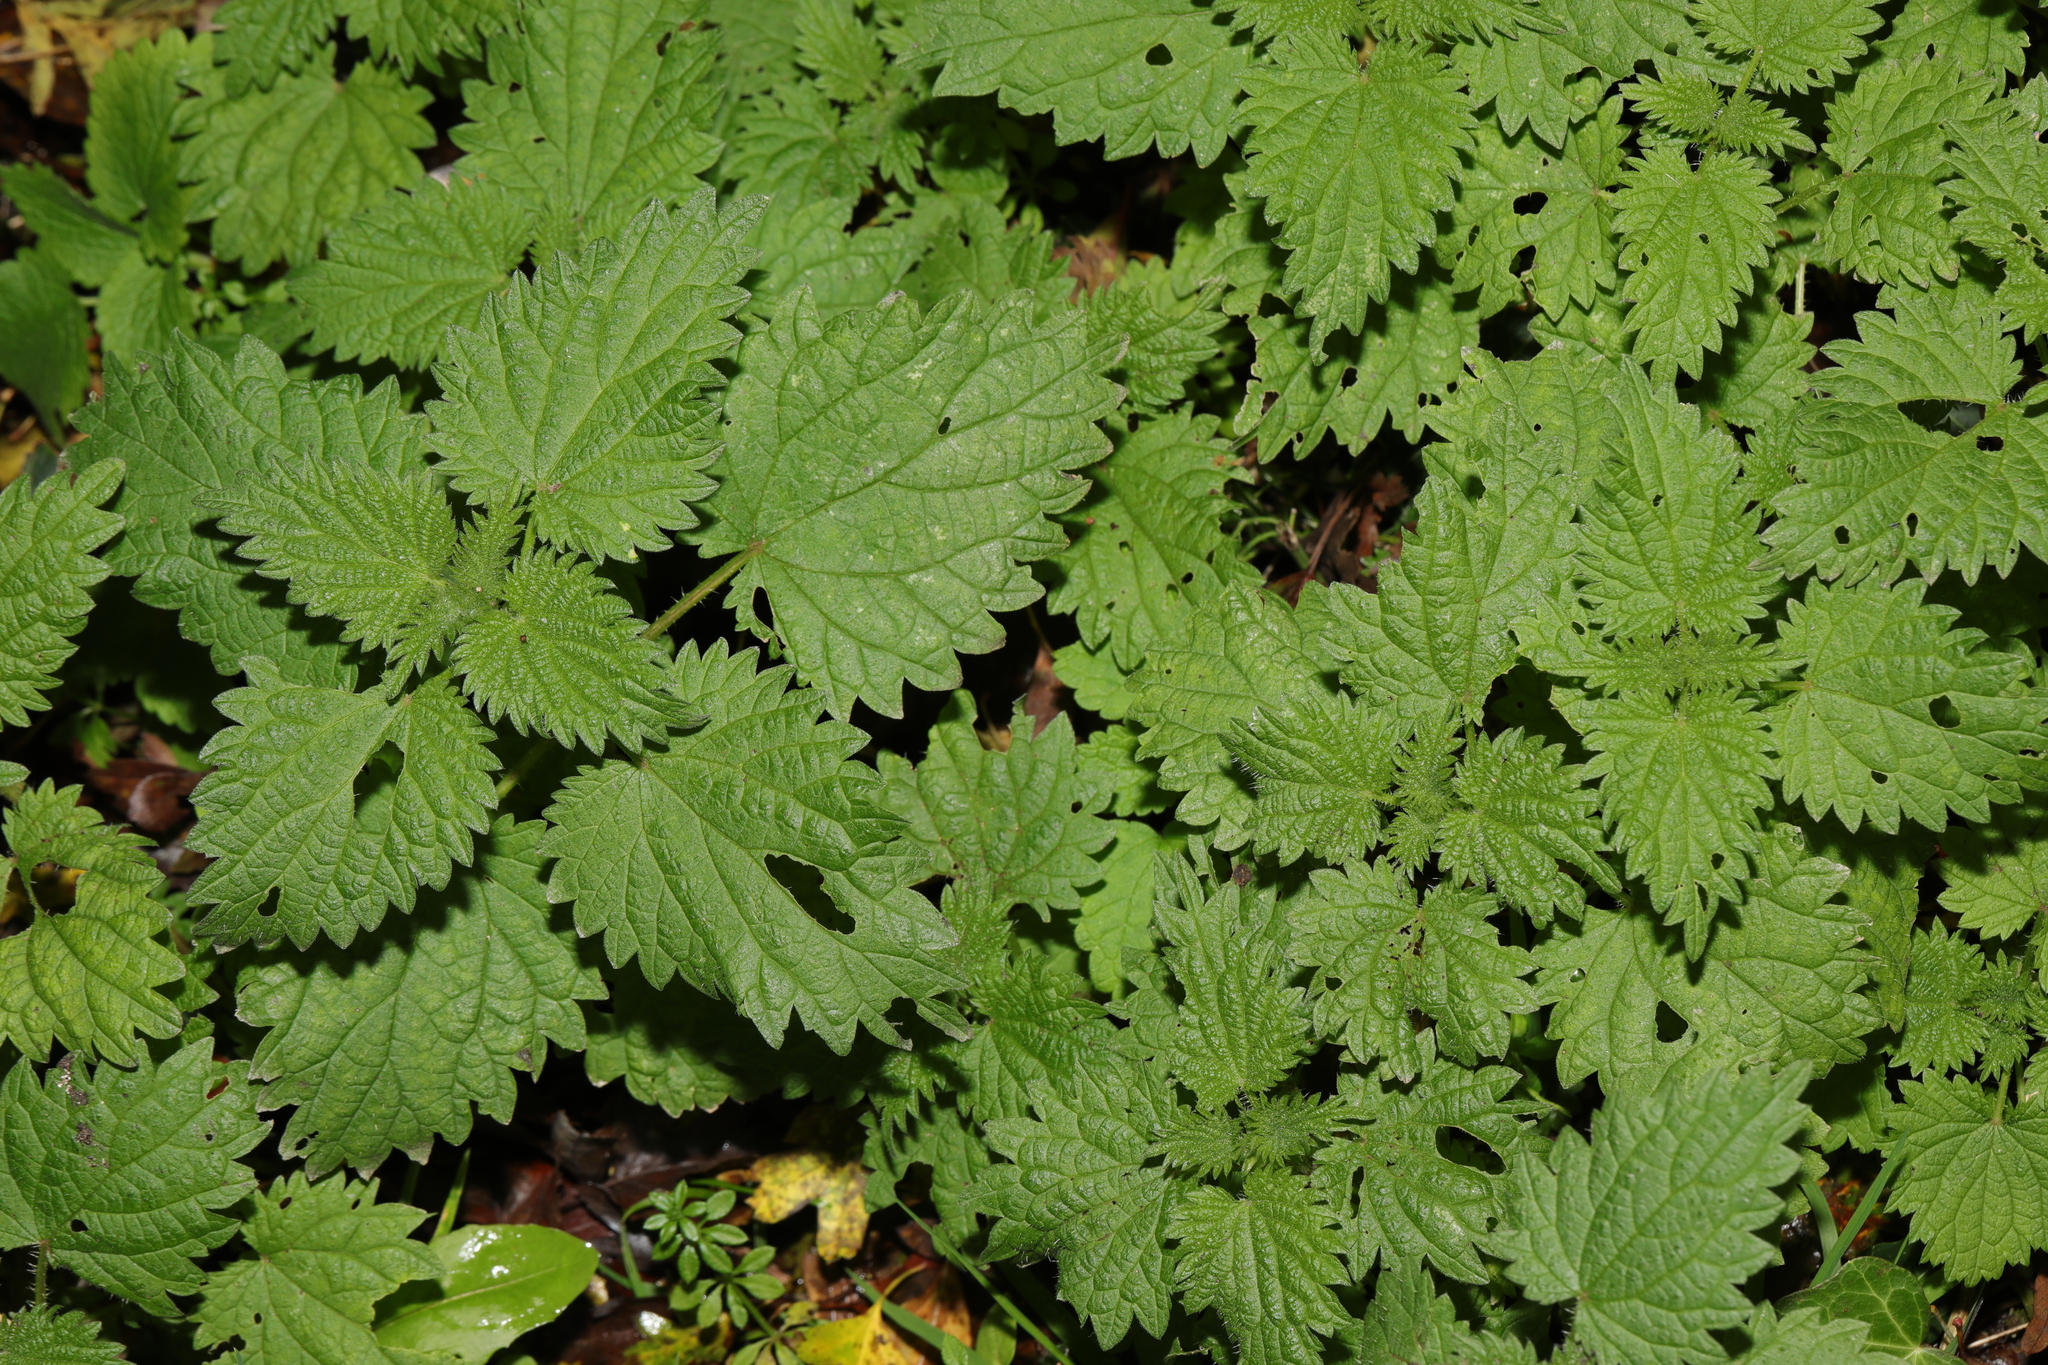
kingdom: Plantae
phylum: Tracheophyta
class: Magnoliopsida
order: Rosales
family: Urticaceae
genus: Urtica
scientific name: Urtica dioica
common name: Common nettle
